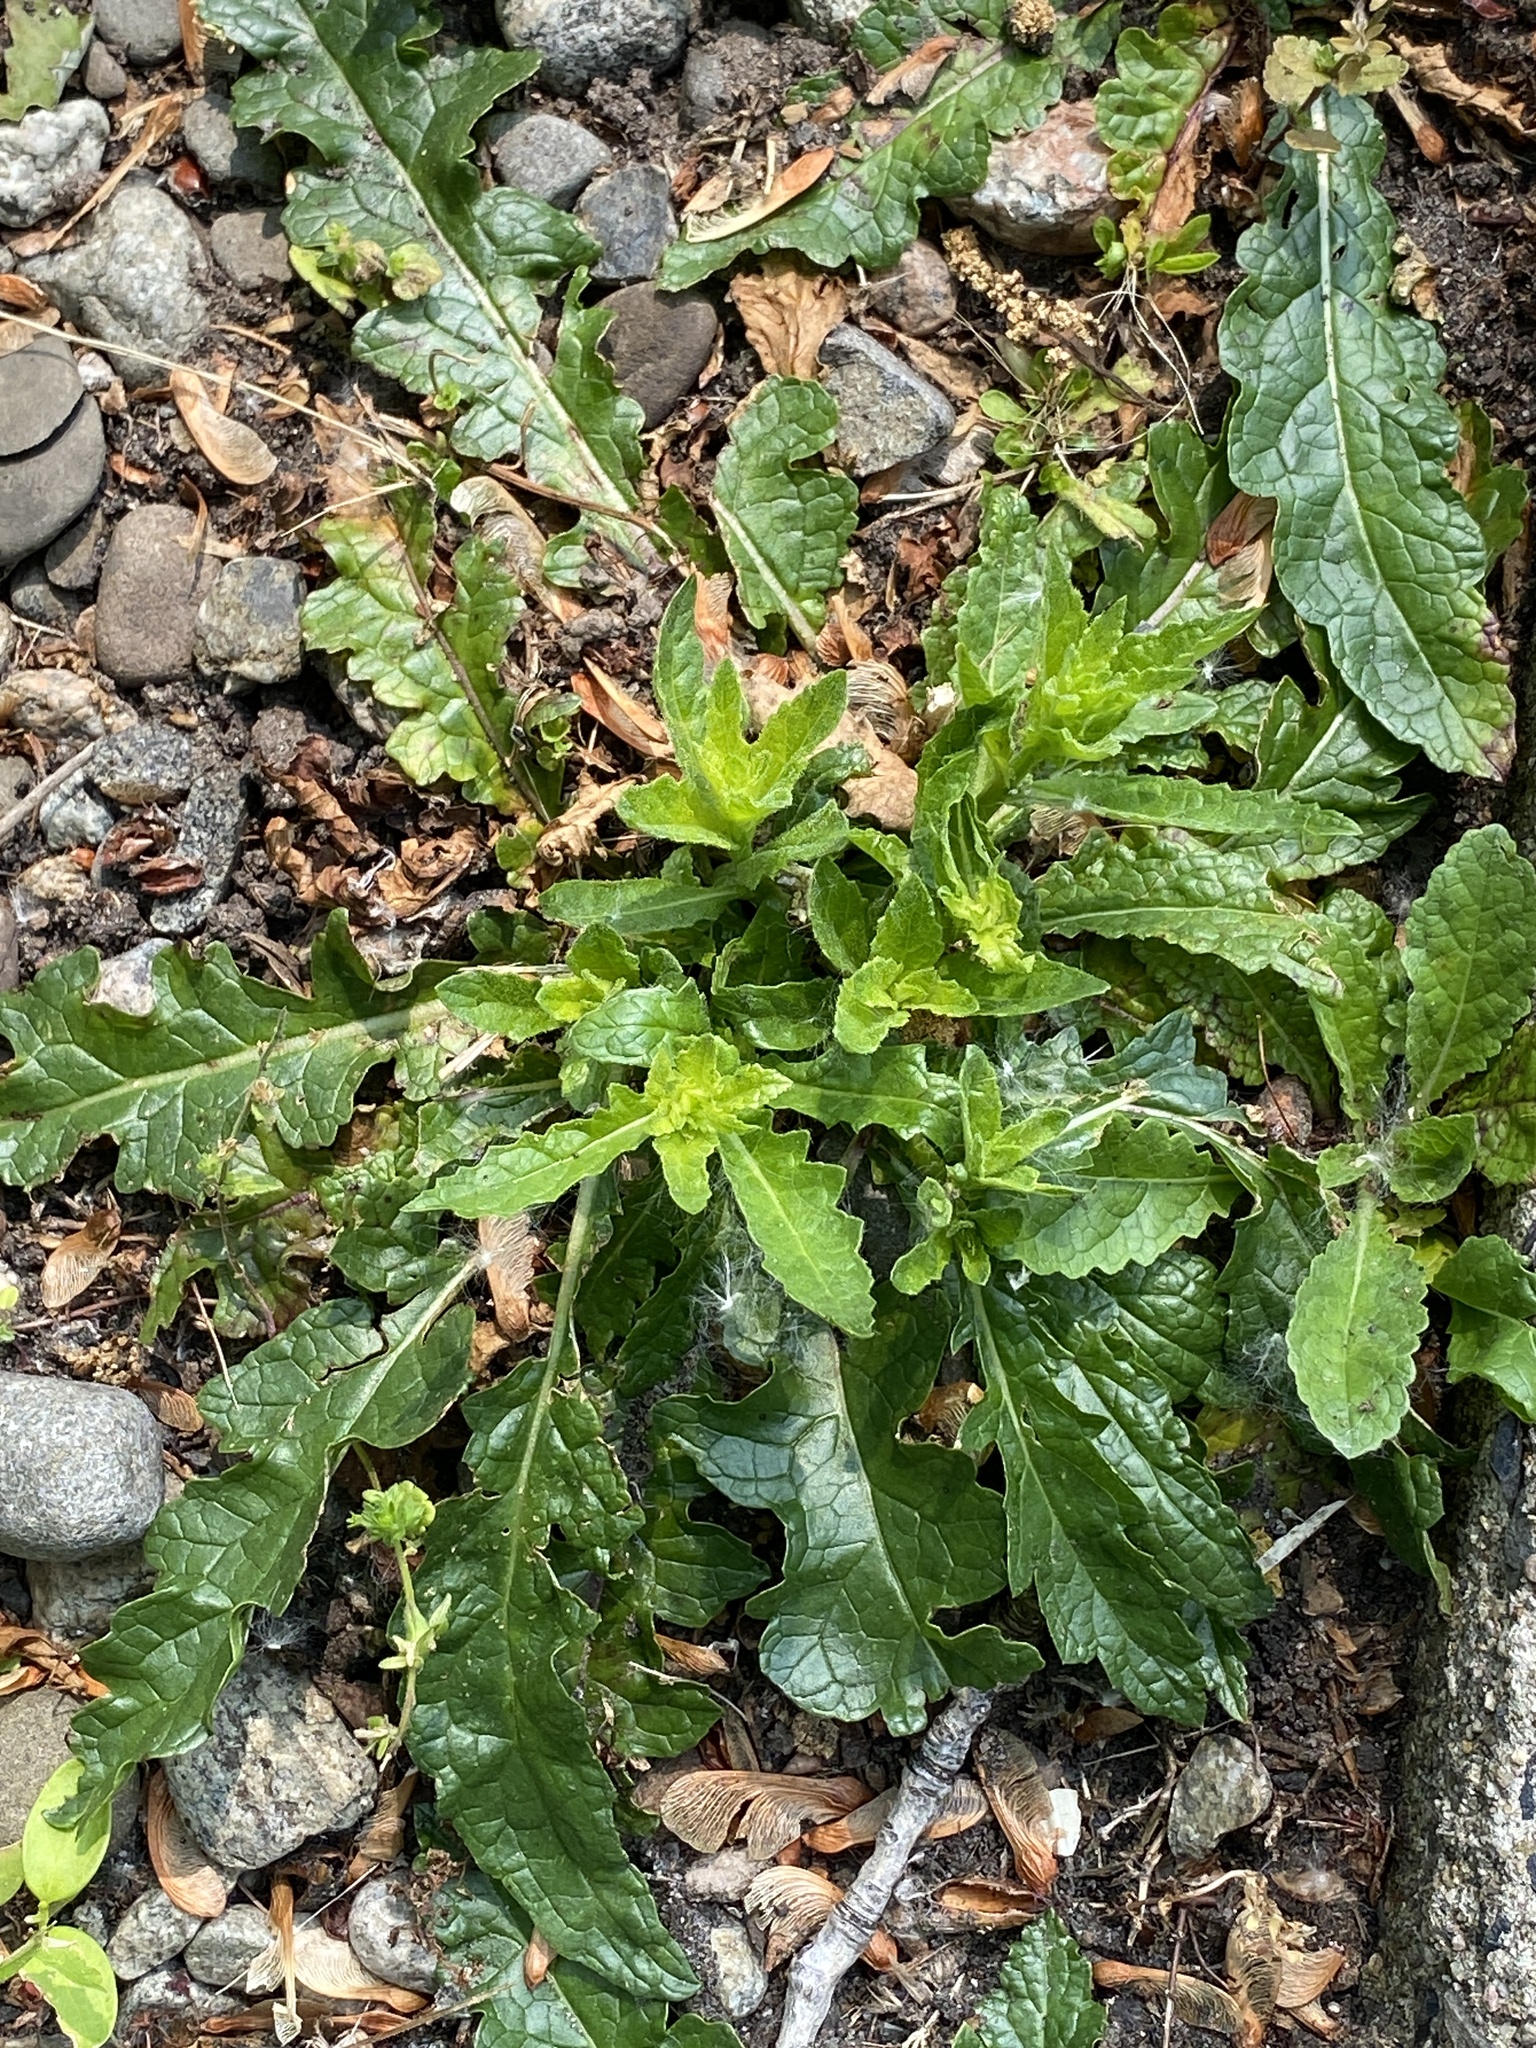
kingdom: Plantae
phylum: Tracheophyta
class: Magnoliopsida
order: Lamiales
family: Scrophulariaceae
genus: Verbascum
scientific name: Verbascum blattaria
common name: Moth mullein
